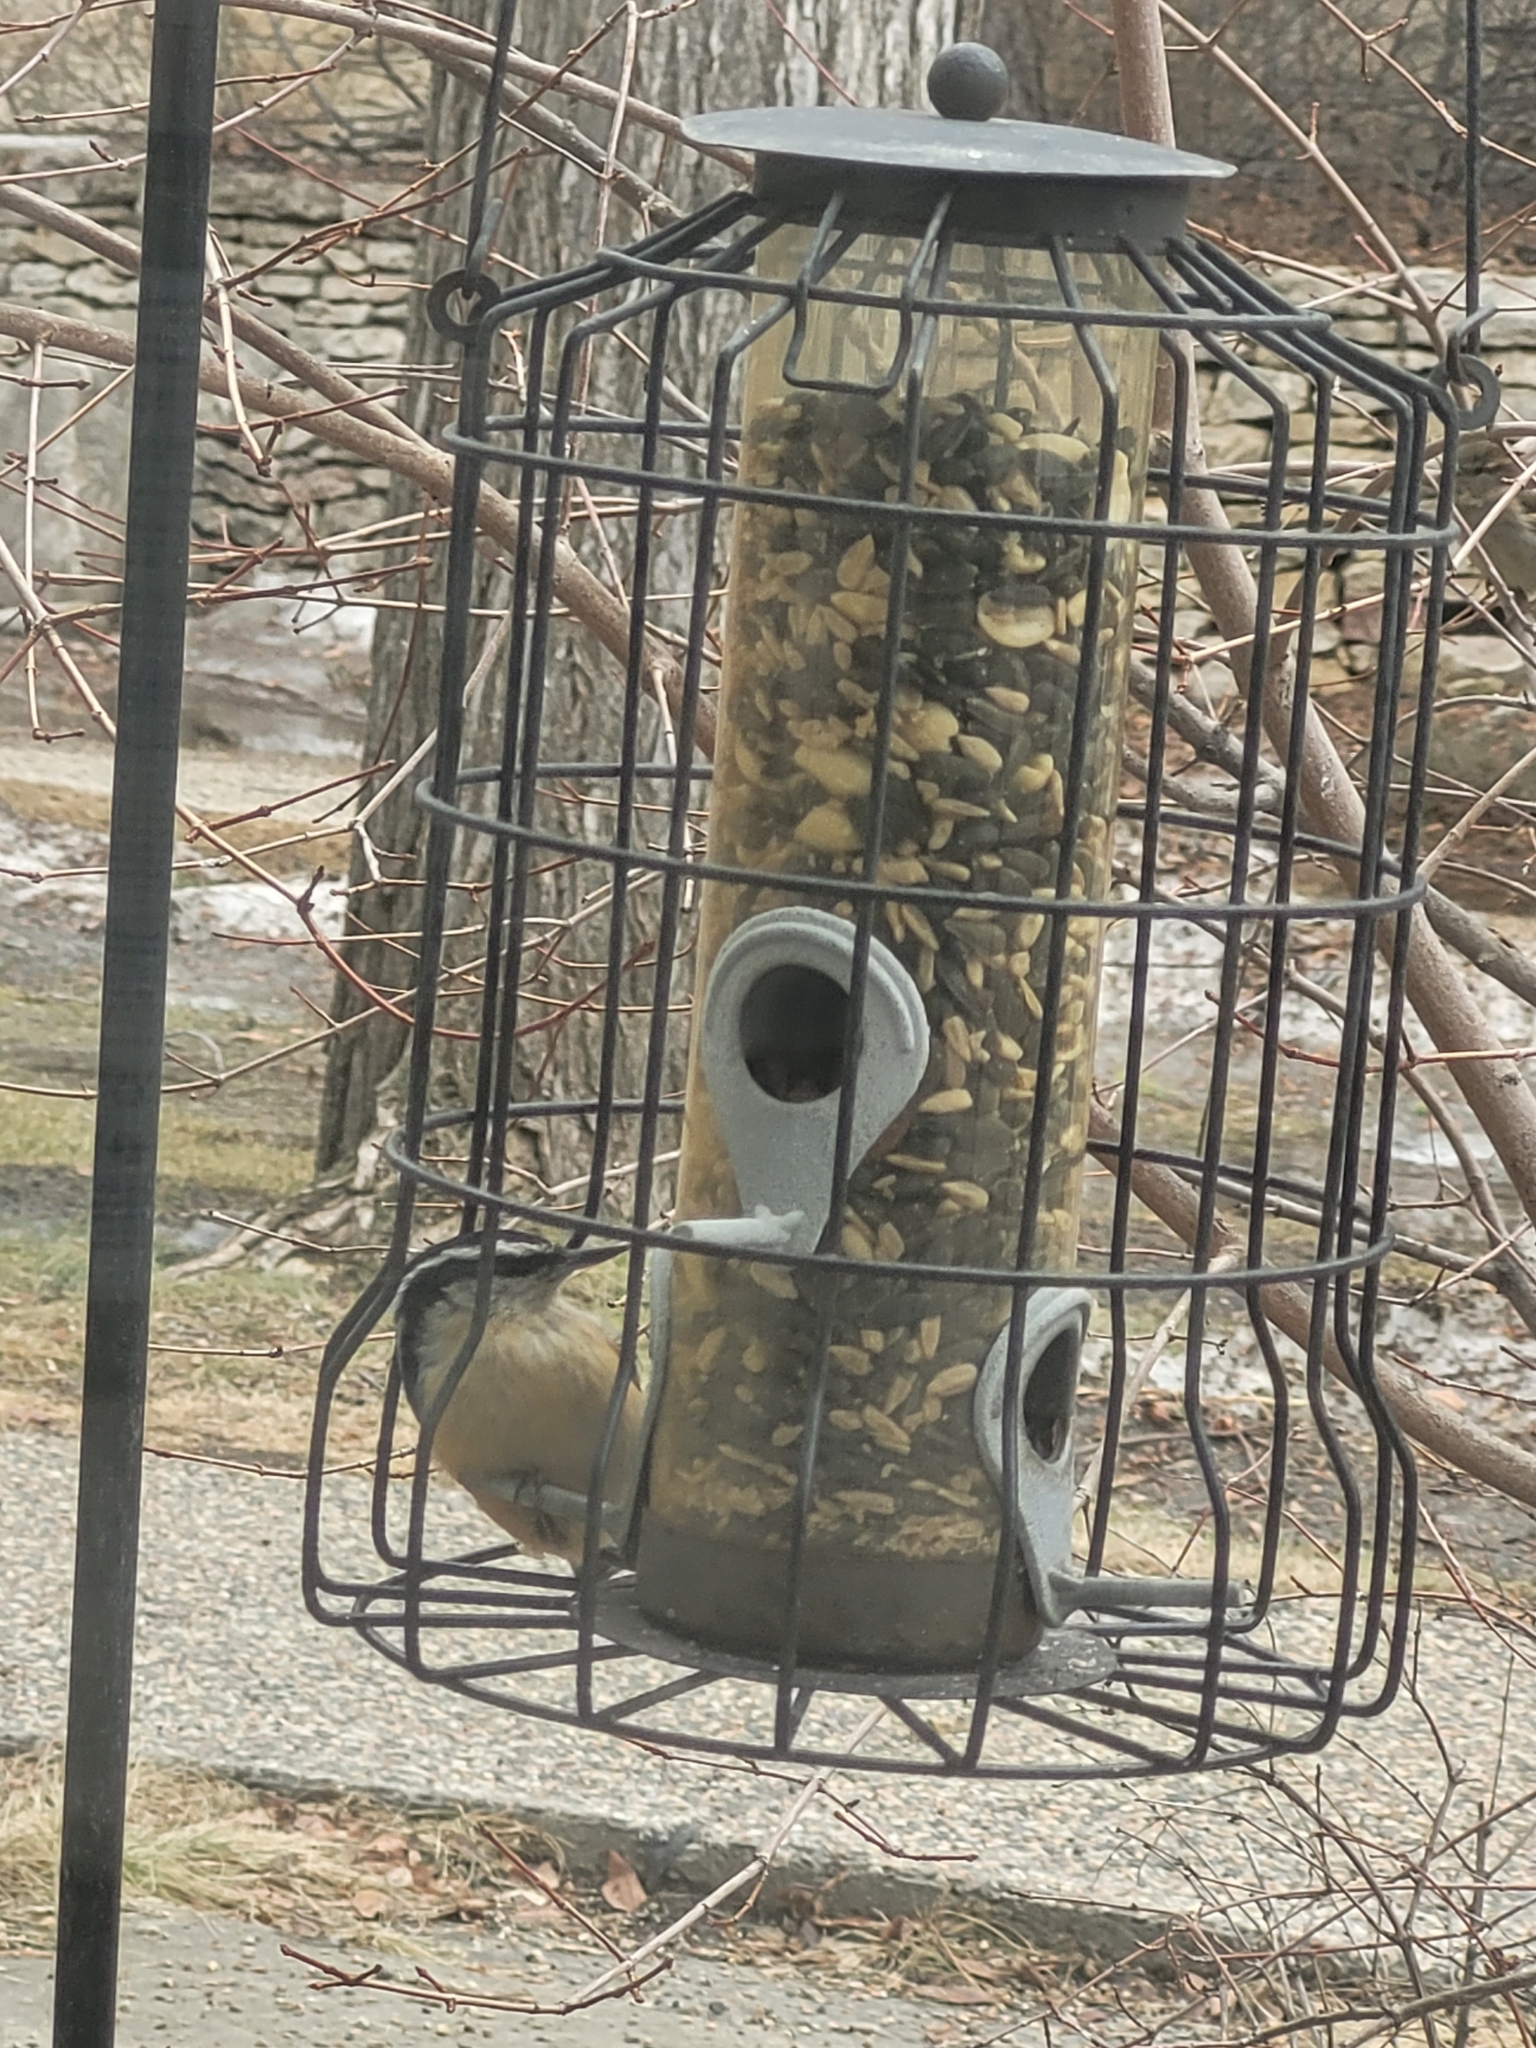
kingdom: Animalia
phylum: Chordata
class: Aves
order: Passeriformes
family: Sittidae
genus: Sitta
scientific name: Sitta canadensis
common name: Red-breasted nuthatch
